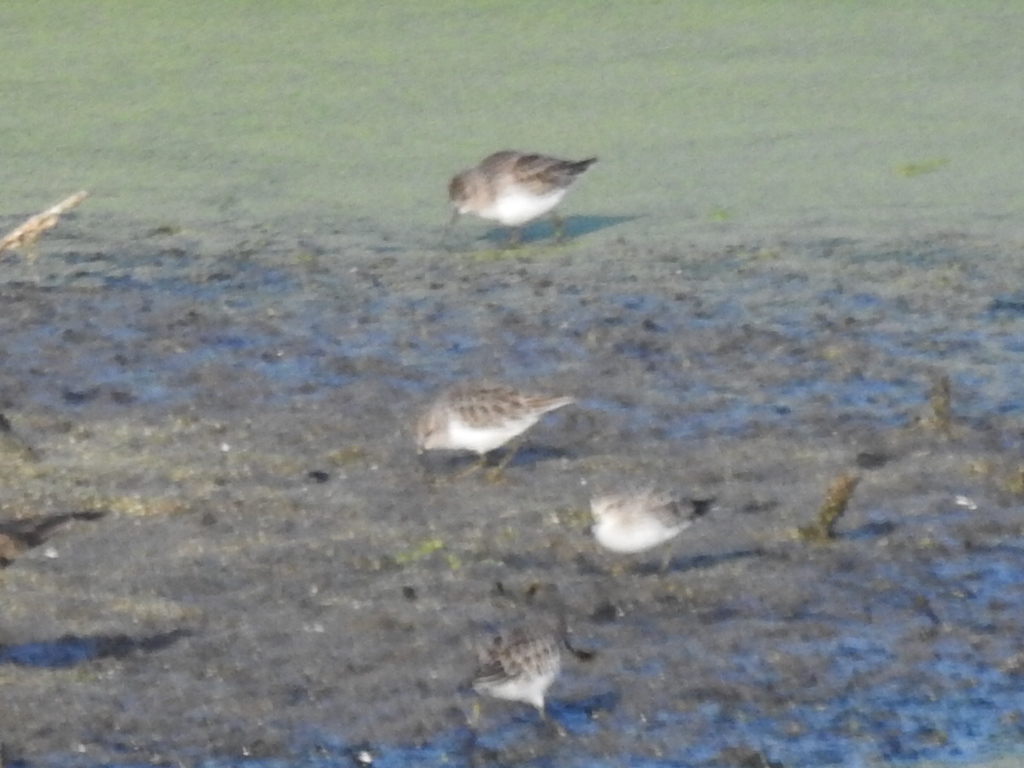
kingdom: Animalia
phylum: Chordata
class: Aves
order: Charadriiformes
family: Scolopacidae
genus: Calidris
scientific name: Calidris minutilla
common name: Least sandpiper
